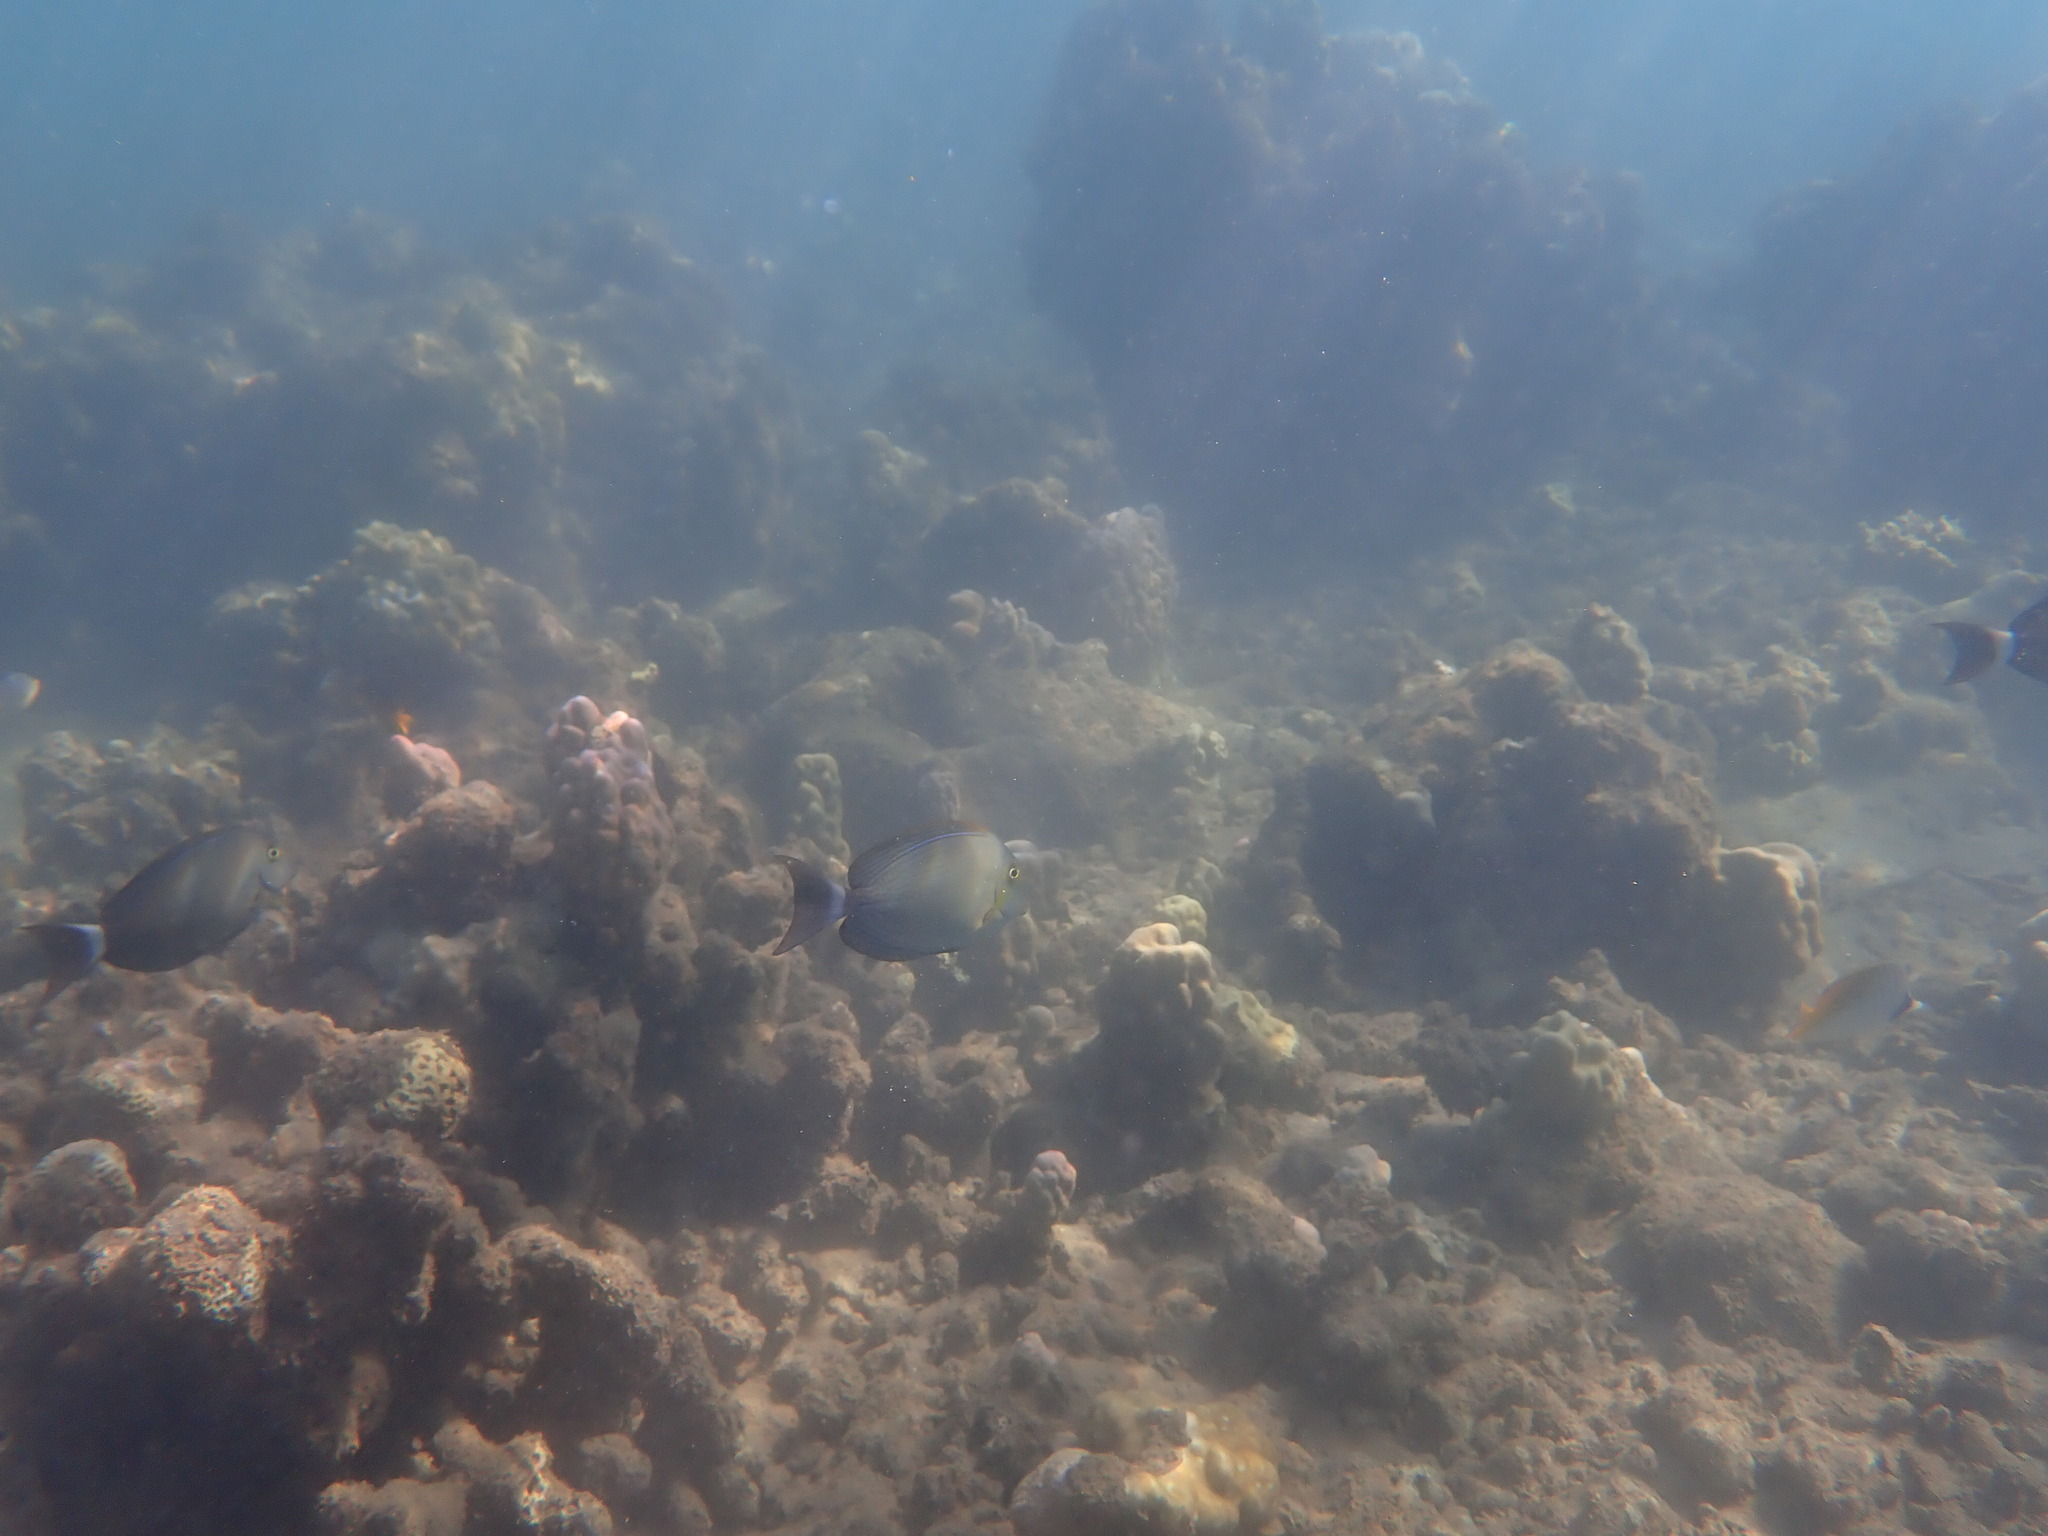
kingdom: Animalia
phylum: Chordata
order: Perciformes
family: Acanthuridae
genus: Acanthurus
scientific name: Acanthurus xanthopterus
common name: Cuvier's surgeonfish
